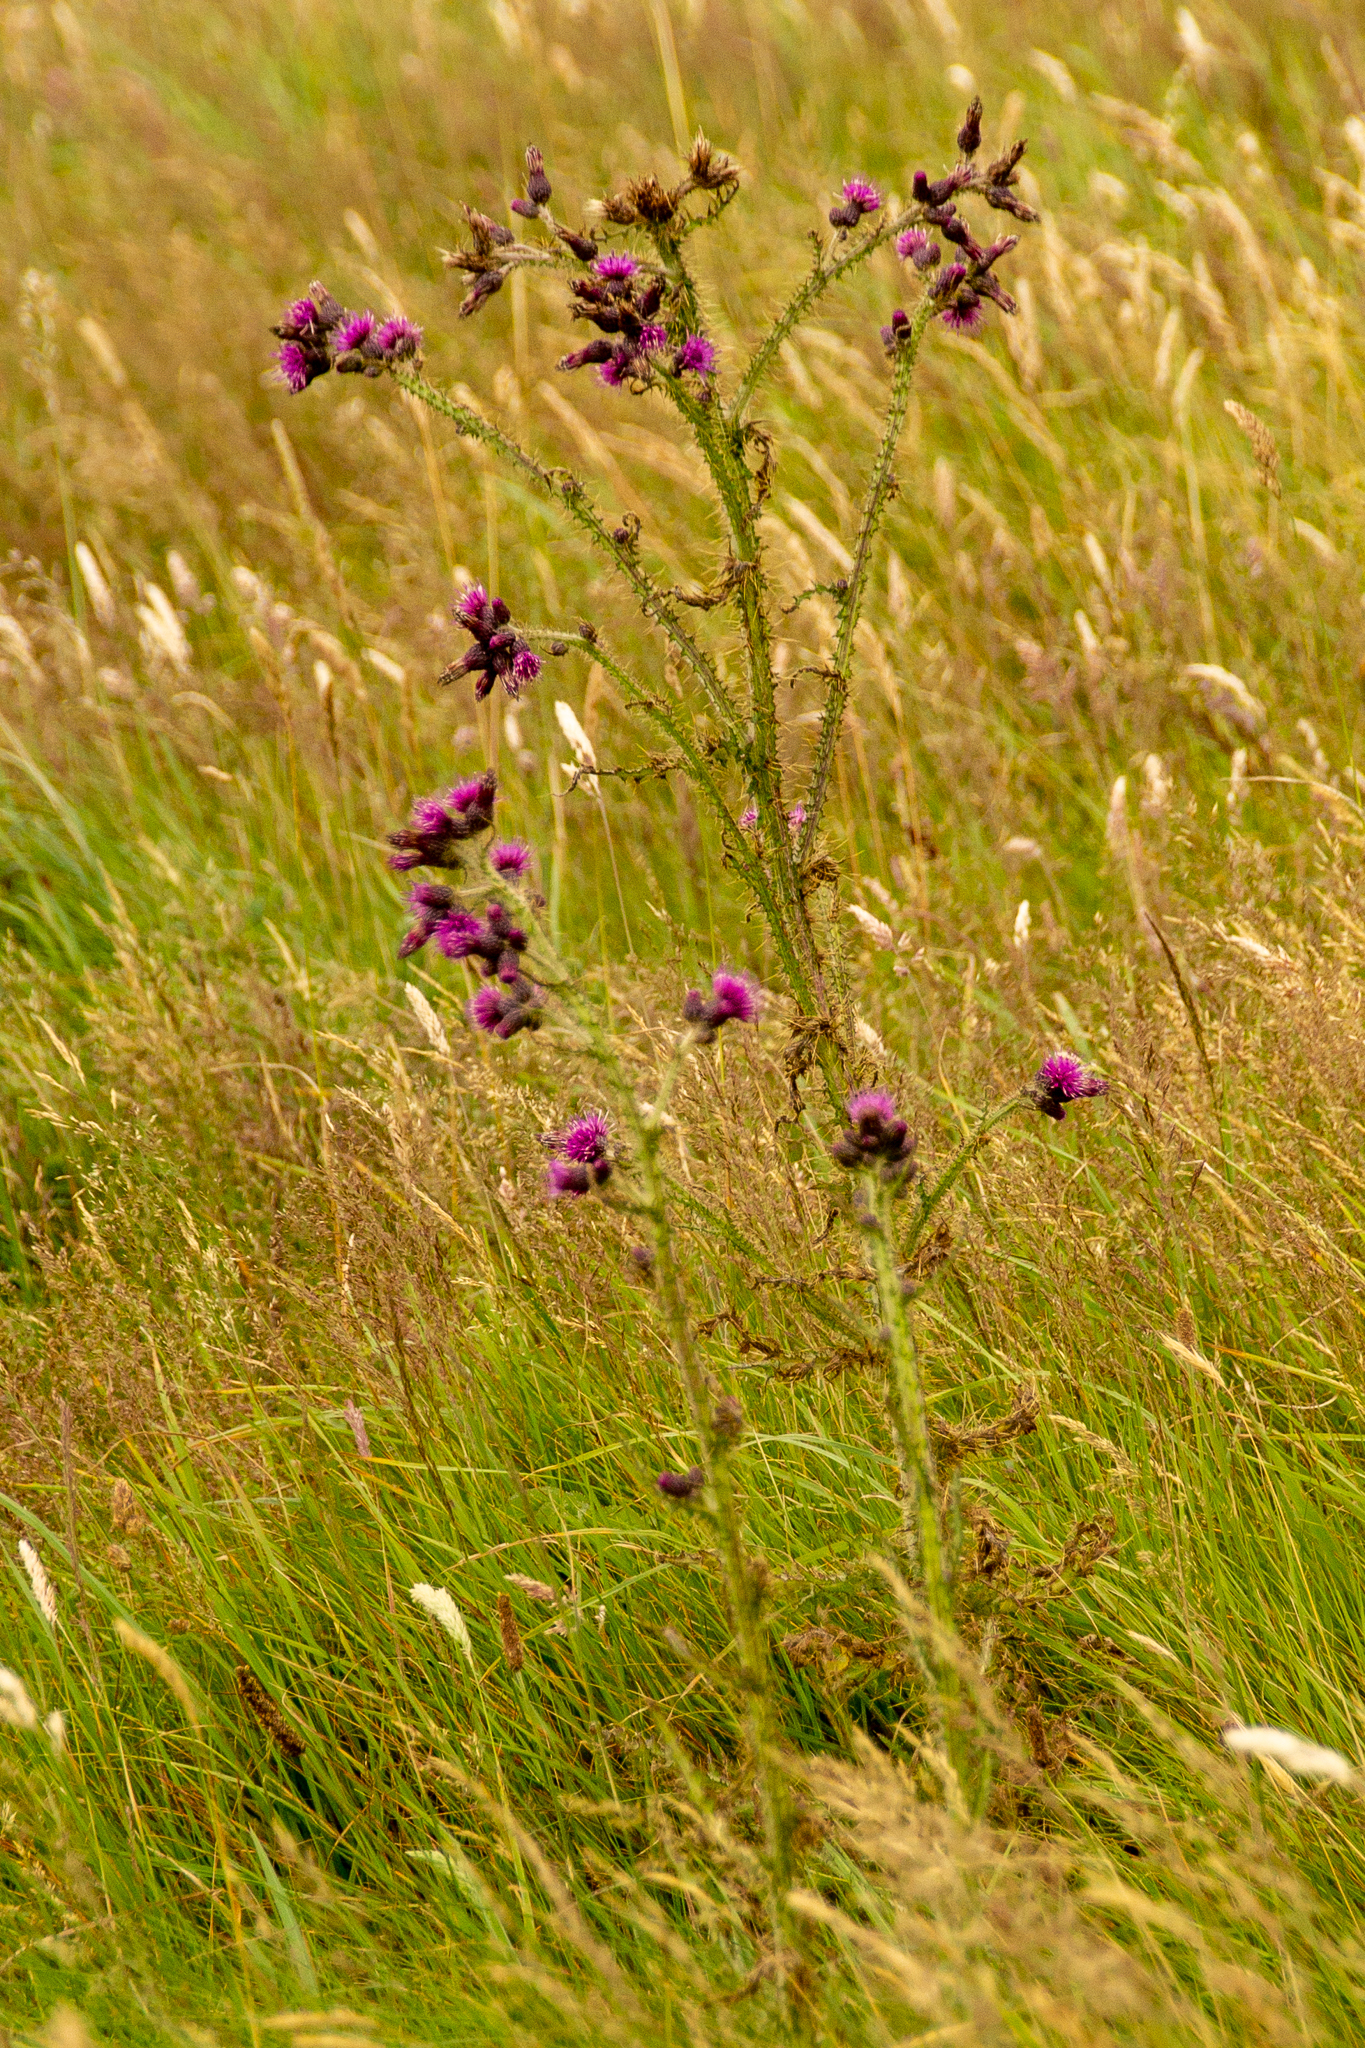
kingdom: Plantae
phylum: Tracheophyta
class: Magnoliopsida
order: Asterales
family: Asteraceae
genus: Cirsium
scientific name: Cirsium palustre
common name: Marsh thistle
